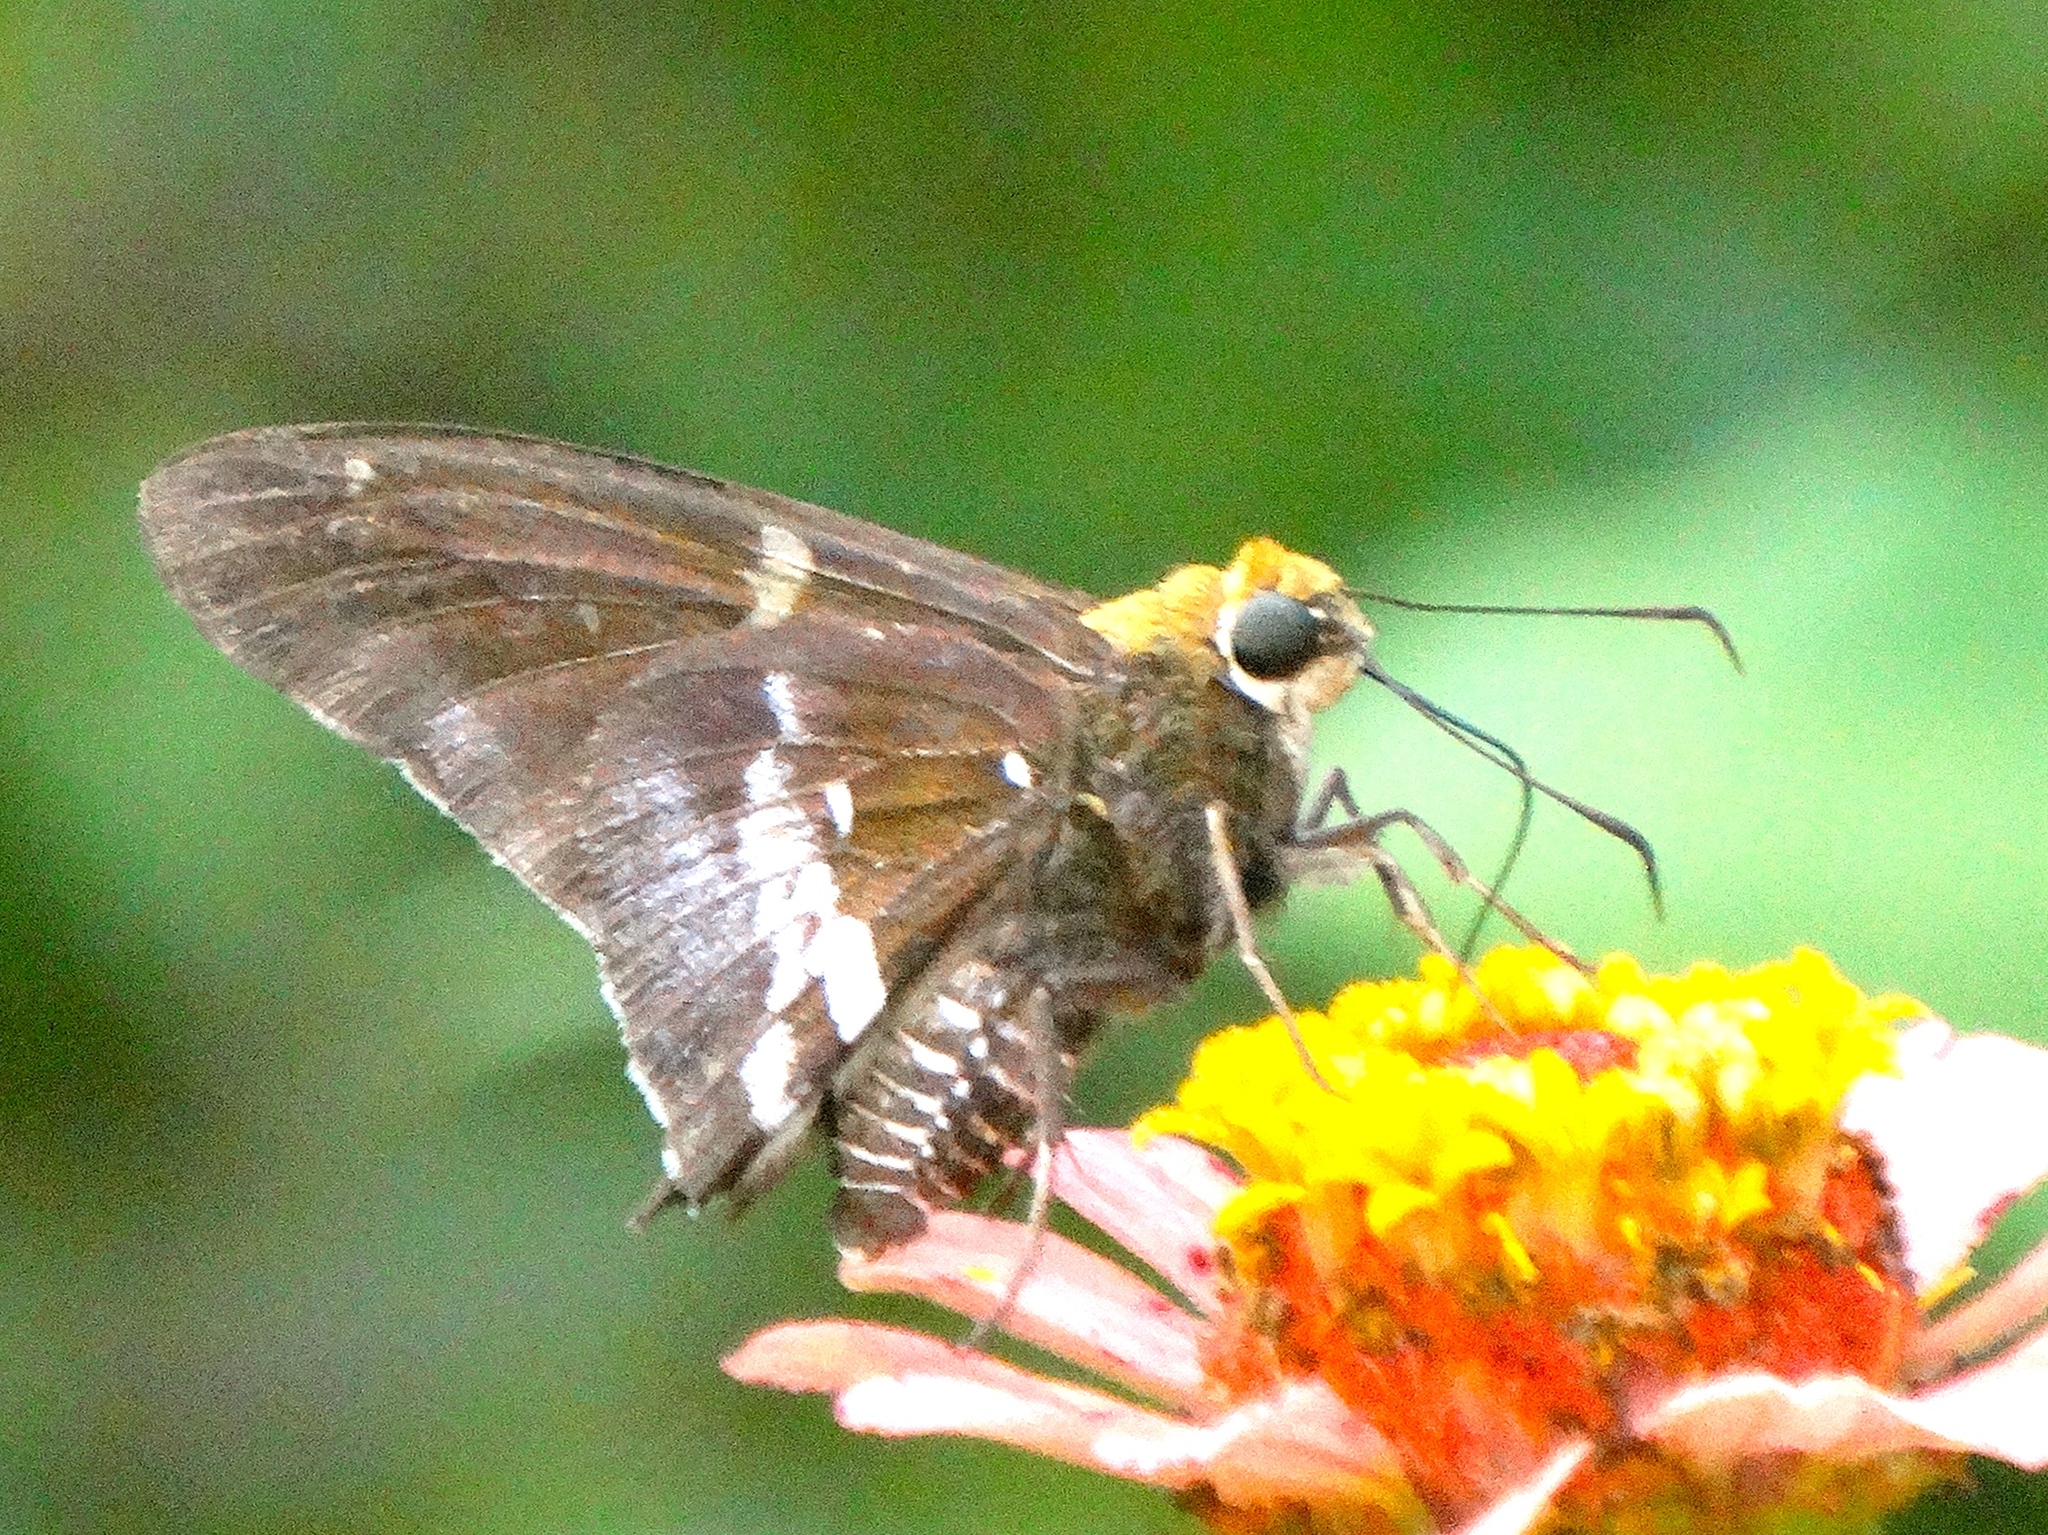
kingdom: Animalia
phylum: Arthropoda
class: Insecta
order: Lepidoptera
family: Hesperiidae
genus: Epargyreus
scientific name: Epargyreus windi
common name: Wind's silverdrop
